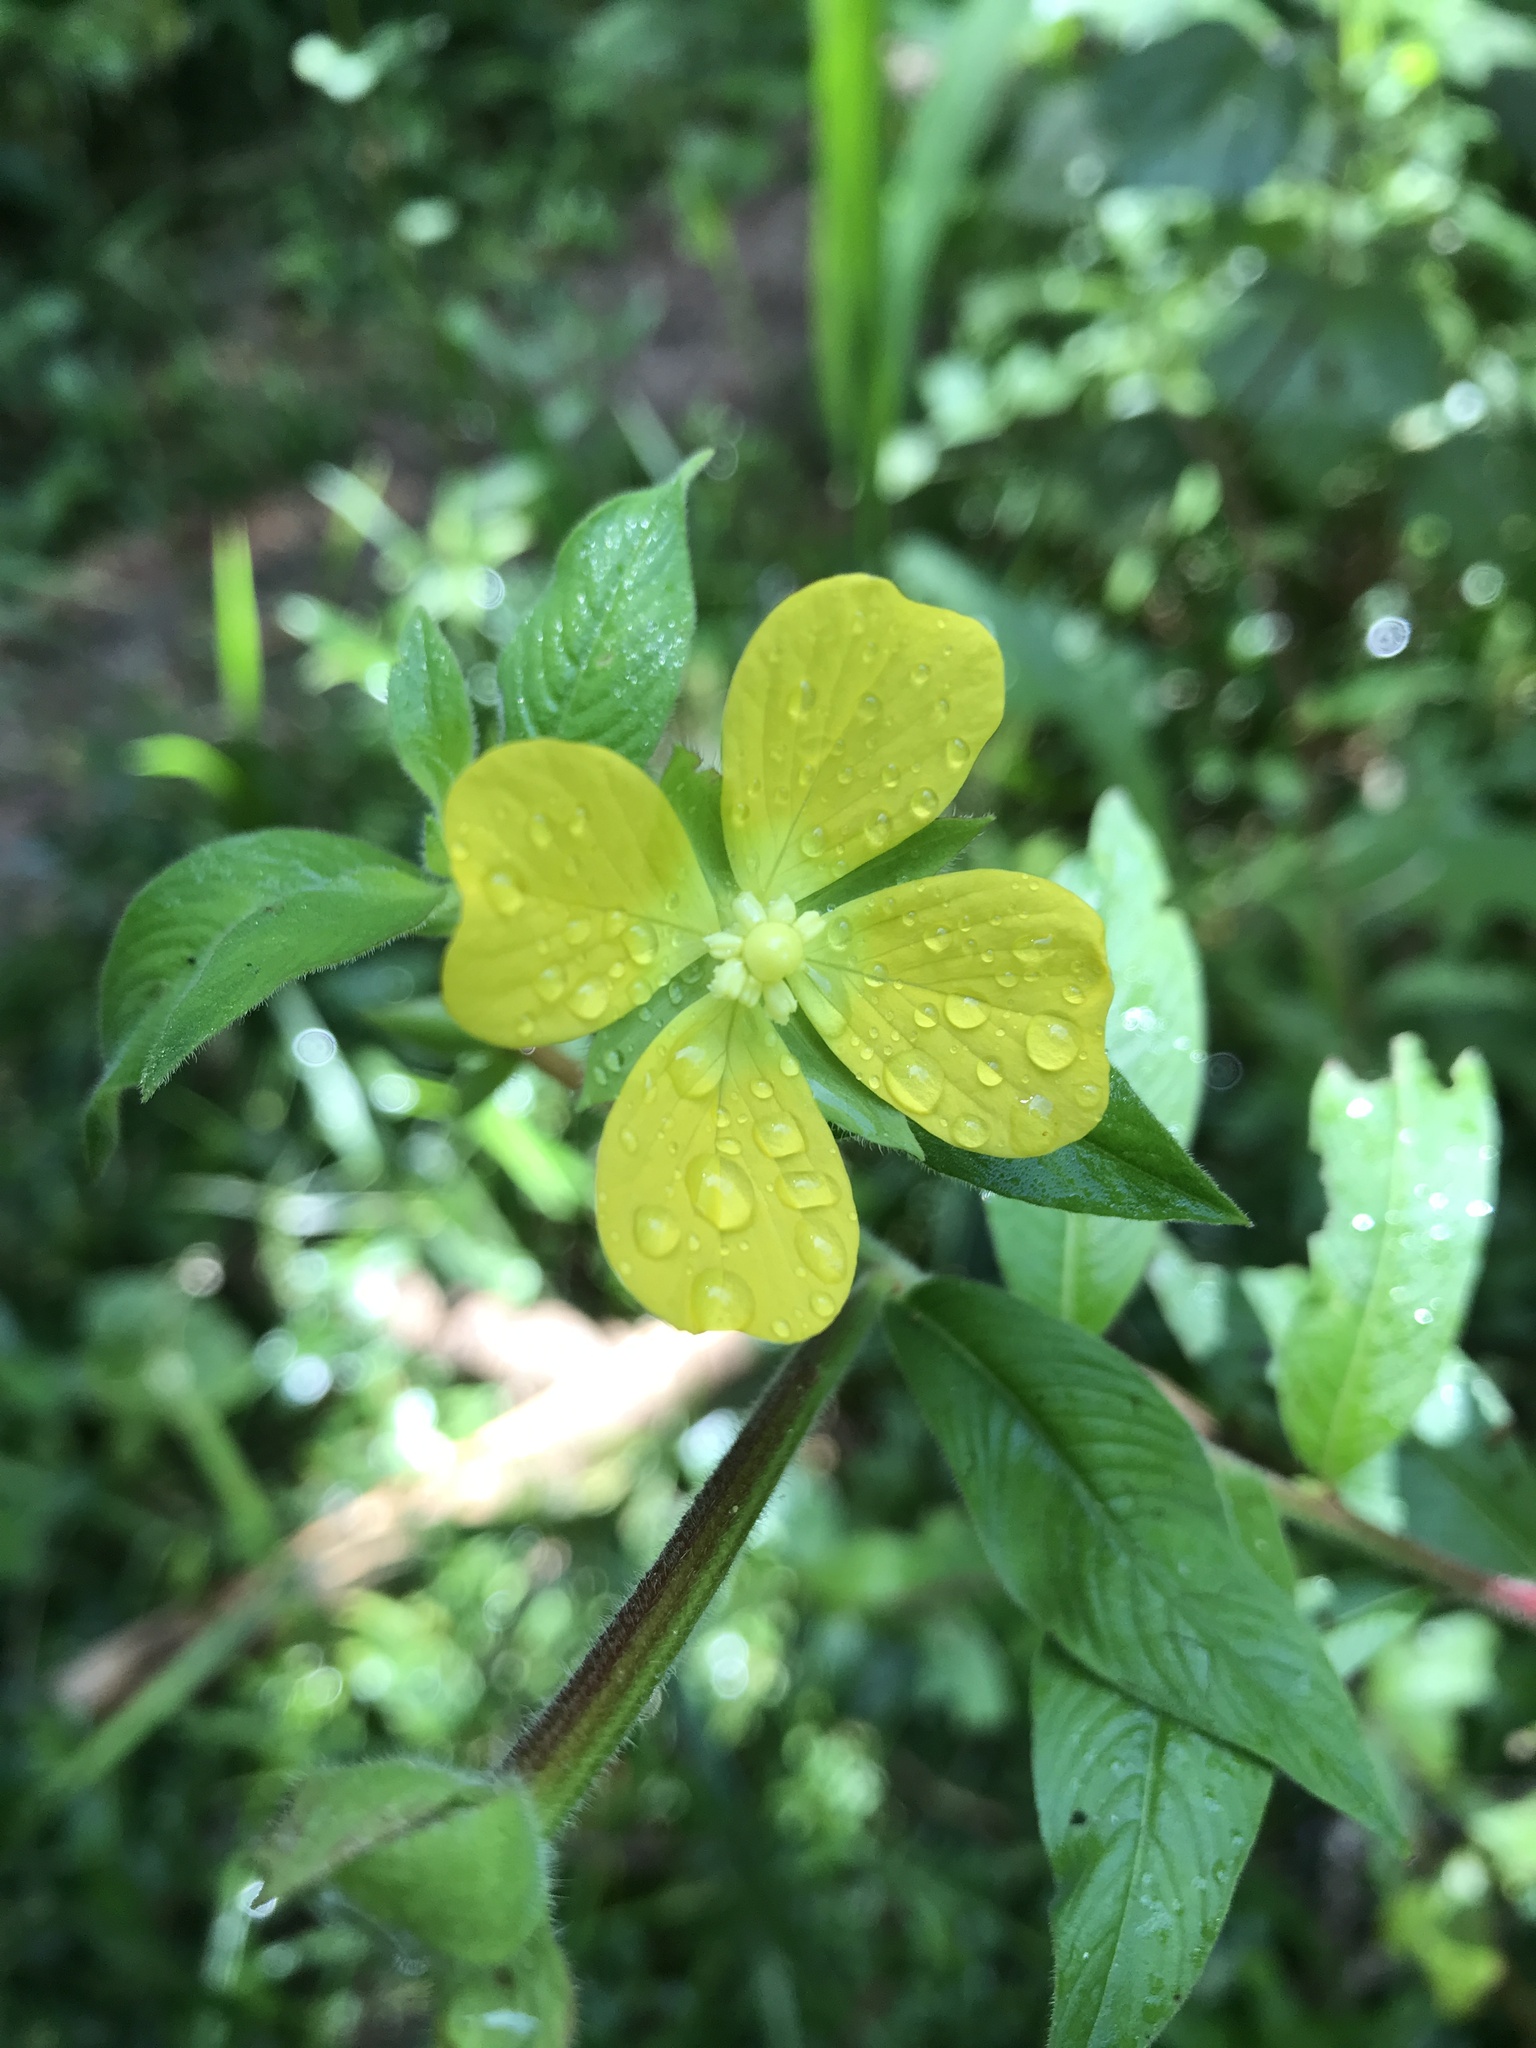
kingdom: Plantae
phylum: Tracheophyta
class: Magnoliopsida
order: Myrtales
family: Onagraceae
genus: Ludwigia
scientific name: Ludwigia octovalvis
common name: Water-primrose
